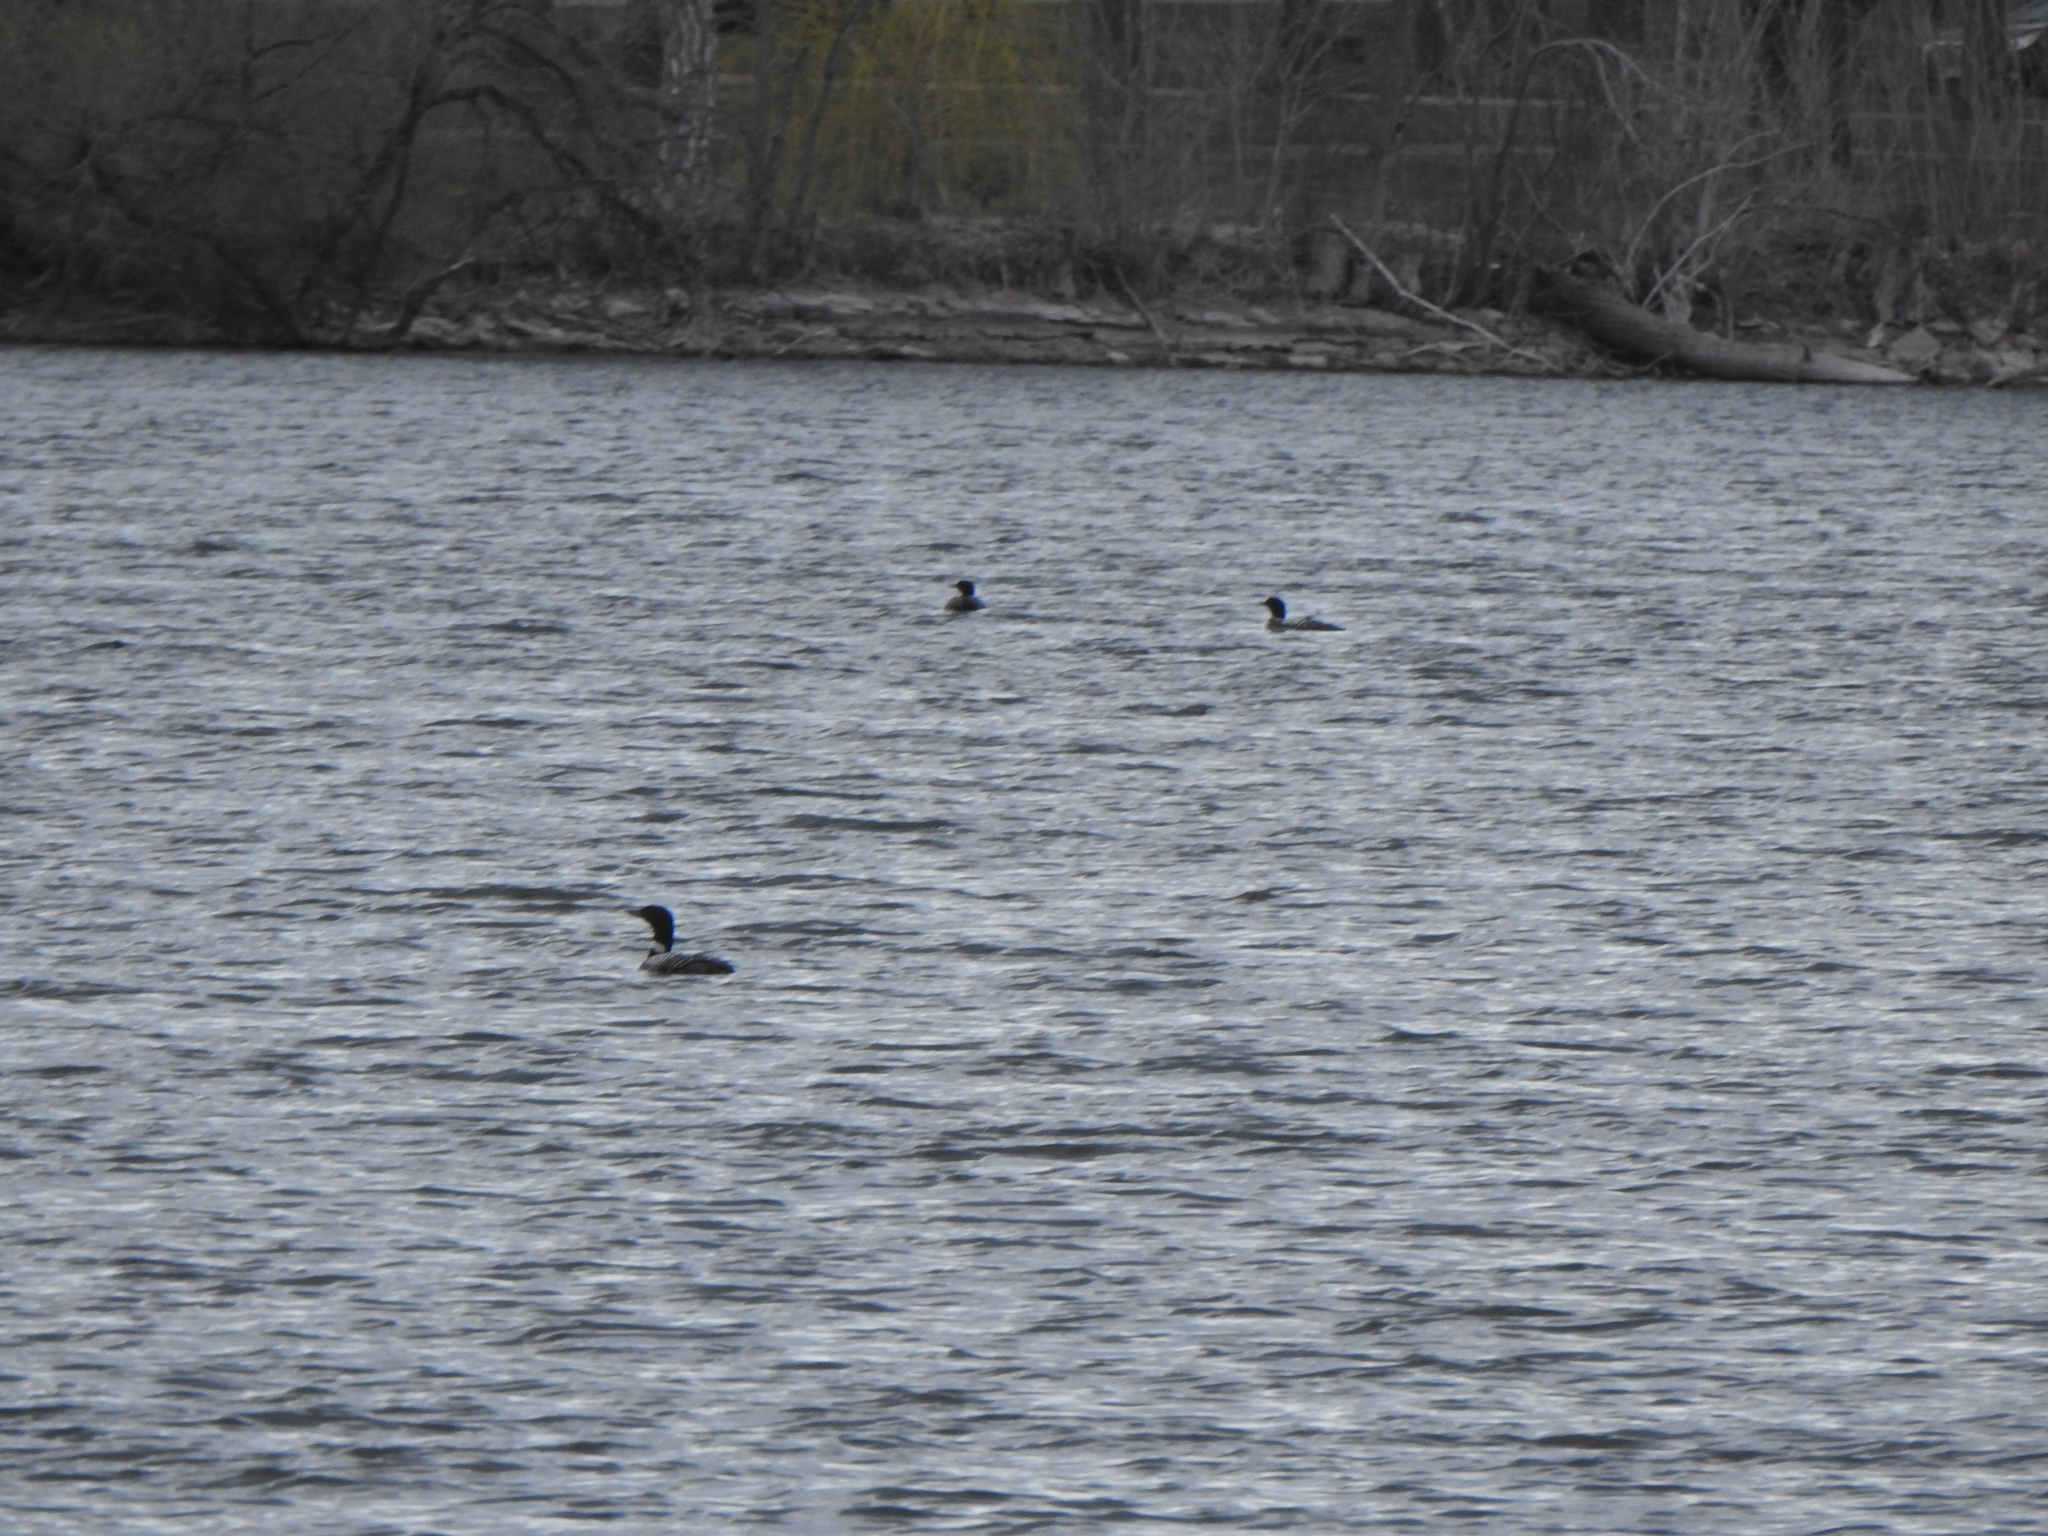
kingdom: Animalia
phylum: Chordata
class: Aves
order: Gaviiformes
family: Gaviidae
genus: Gavia
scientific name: Gavia immer
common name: Common loon
